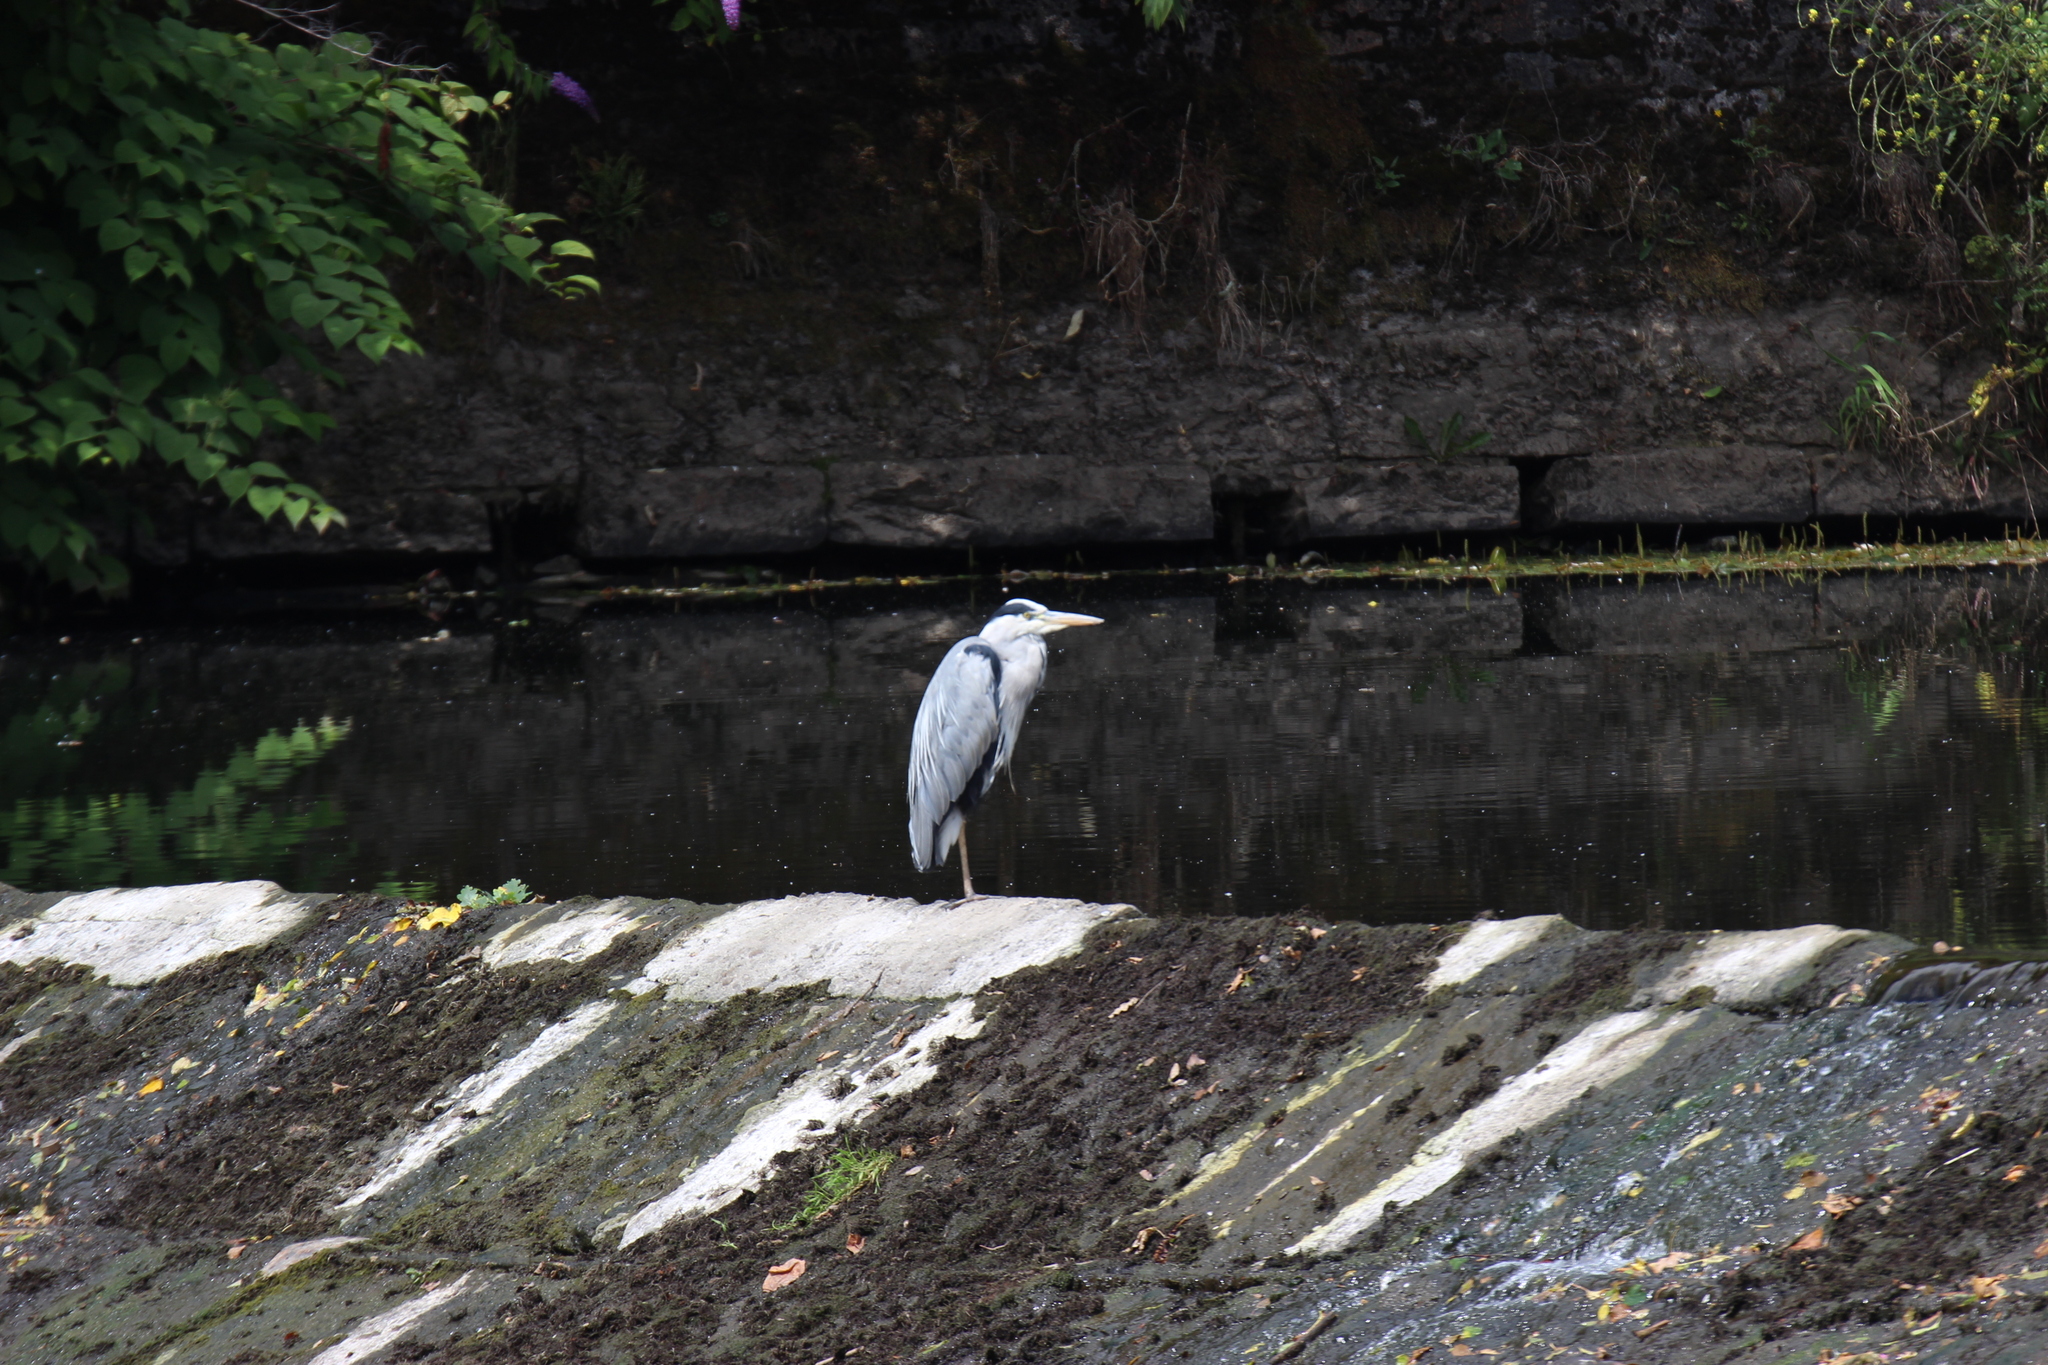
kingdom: Animalia
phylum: Chordata
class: Aves
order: Pelecaniformes
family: Ardeidae
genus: Ardea
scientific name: Ardea cinerea
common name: Grey heron
